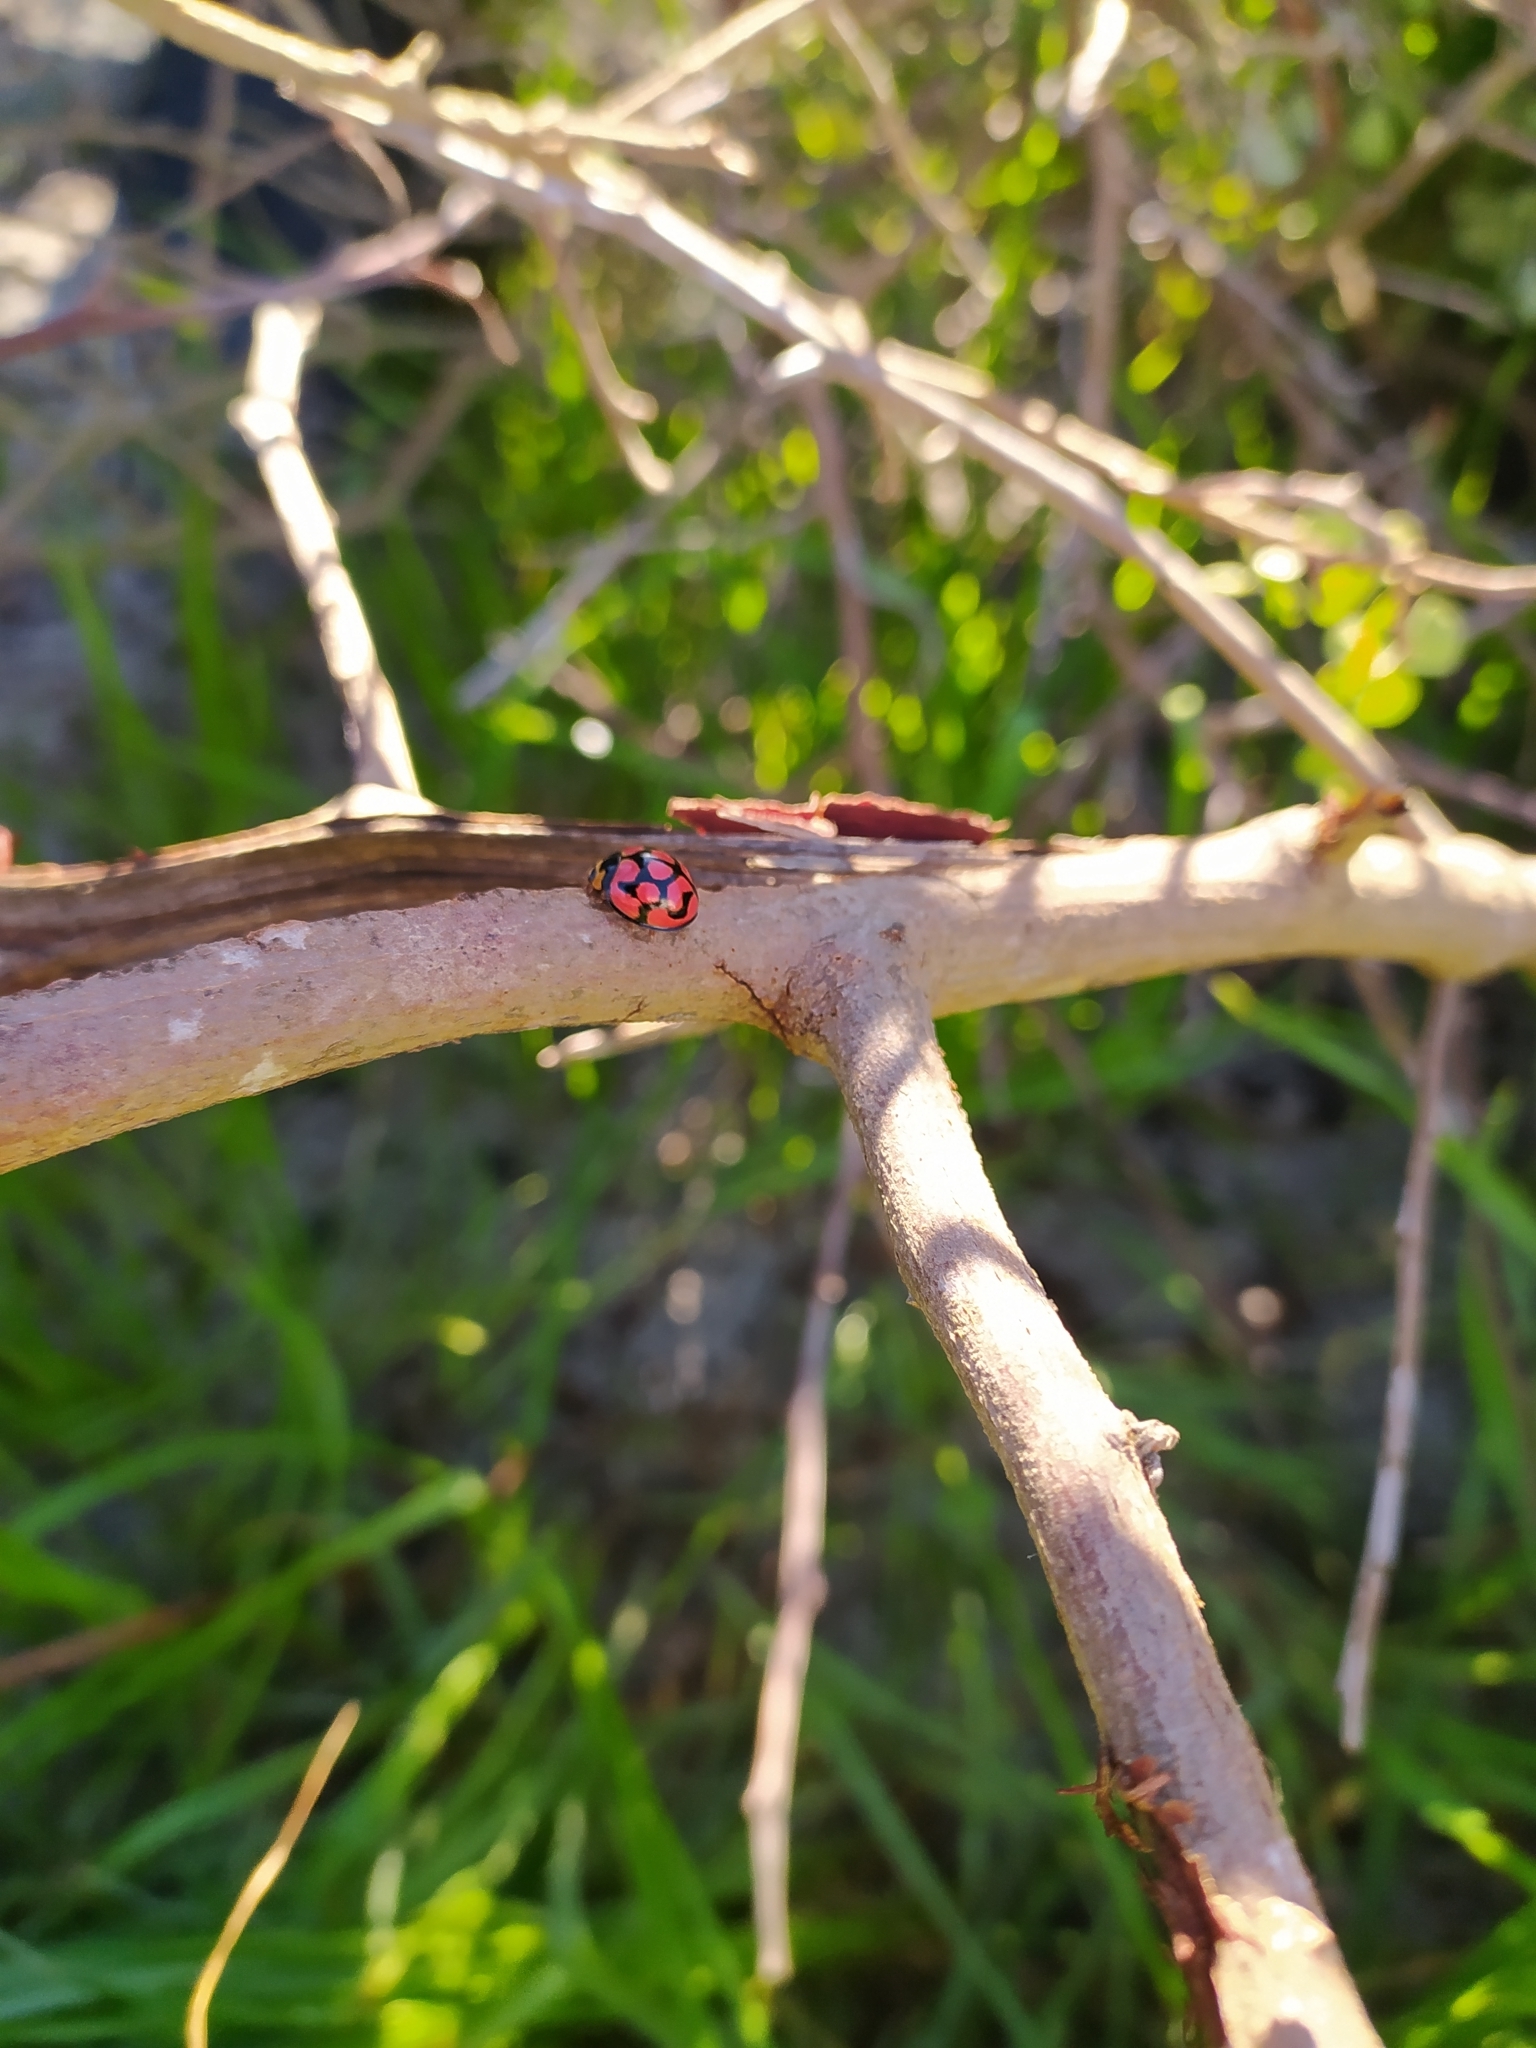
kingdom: Animalia
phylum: Arthropoda
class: Insecta
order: Coleoptera
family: Coccinellidae
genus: Cheilomenes
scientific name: Cheilomenes lunata
